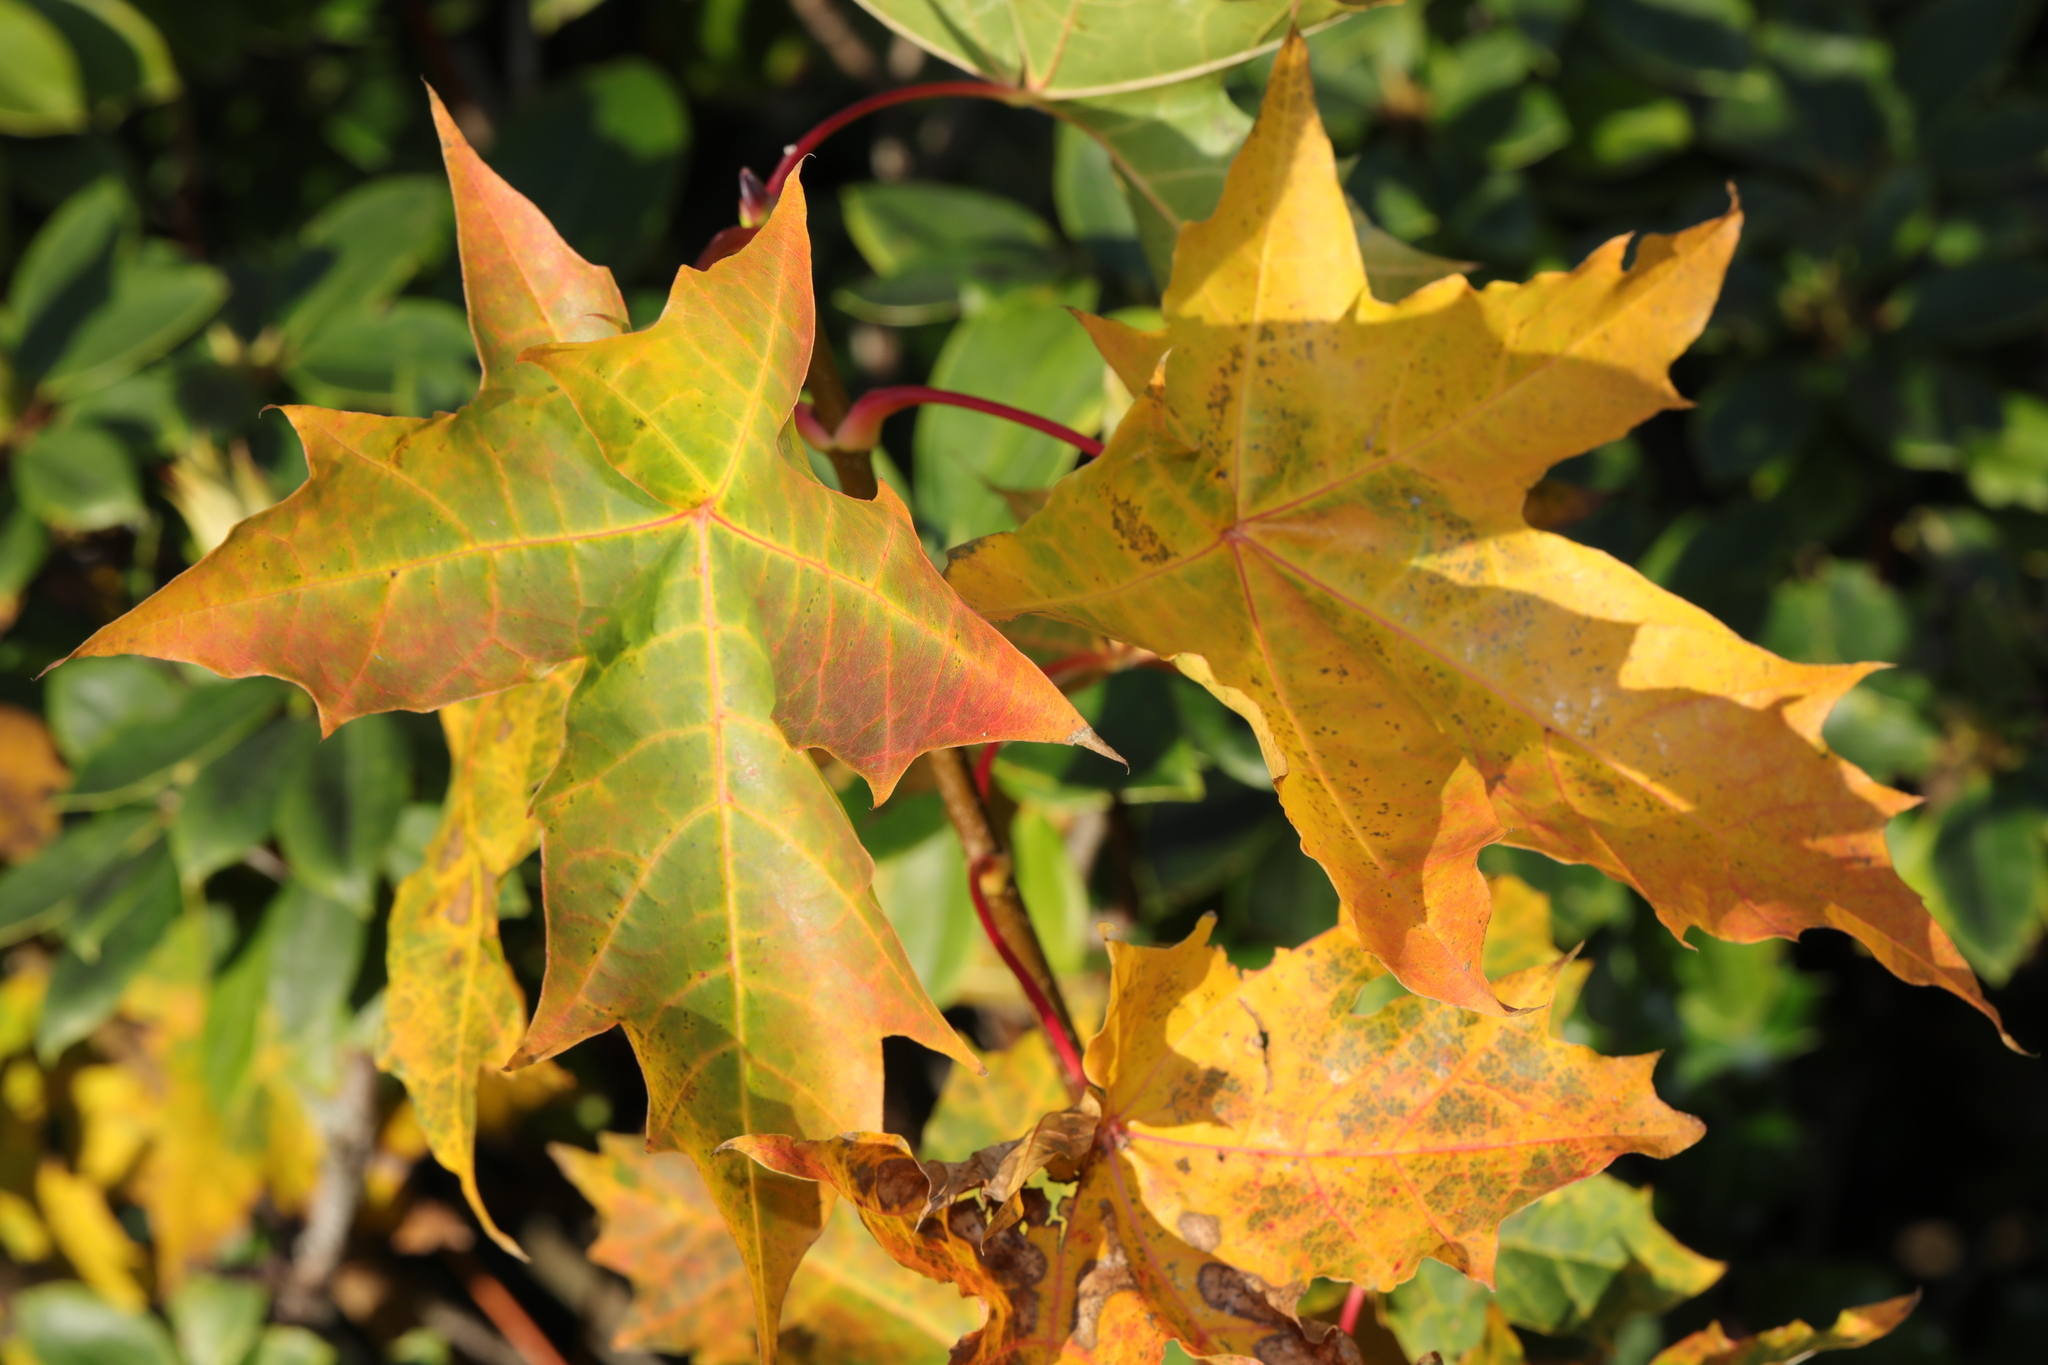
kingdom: Plantae
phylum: Tracheophyta
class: Magnoliopsida
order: Sapindales
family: Sapindaceae
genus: Acer
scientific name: Acer platanoides
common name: Norway maple
